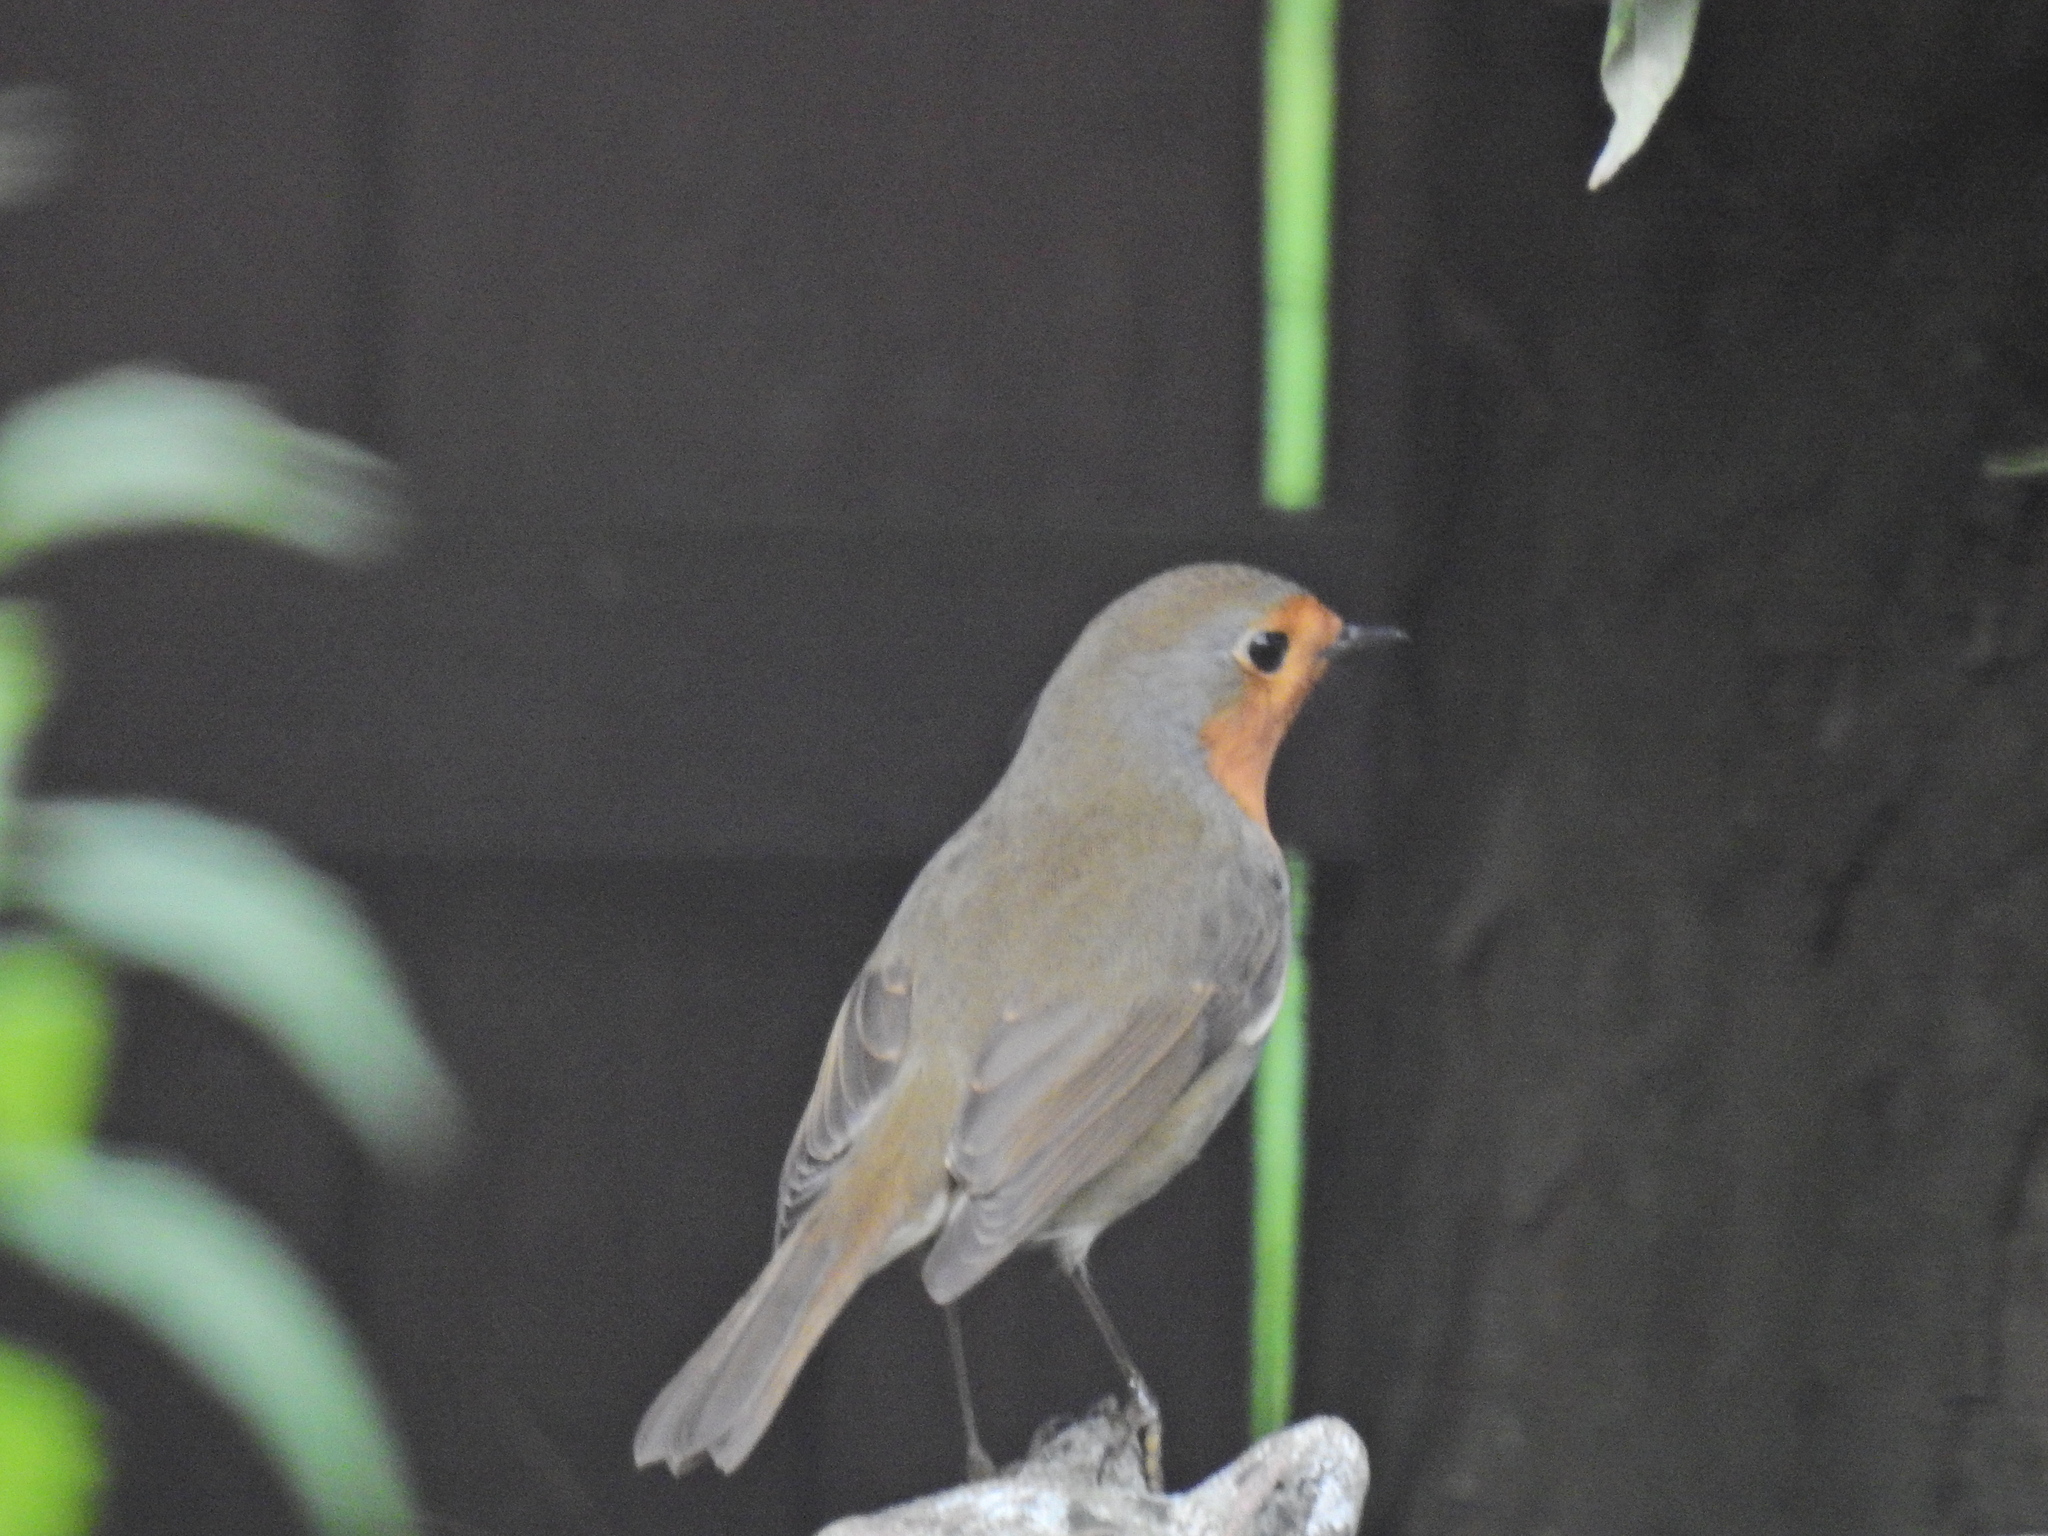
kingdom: Animalia
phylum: Chordata
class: Aves
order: Passeriformes
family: Muscicapidae
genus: Erithacus
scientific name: Erithacus rubecula
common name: European robin
